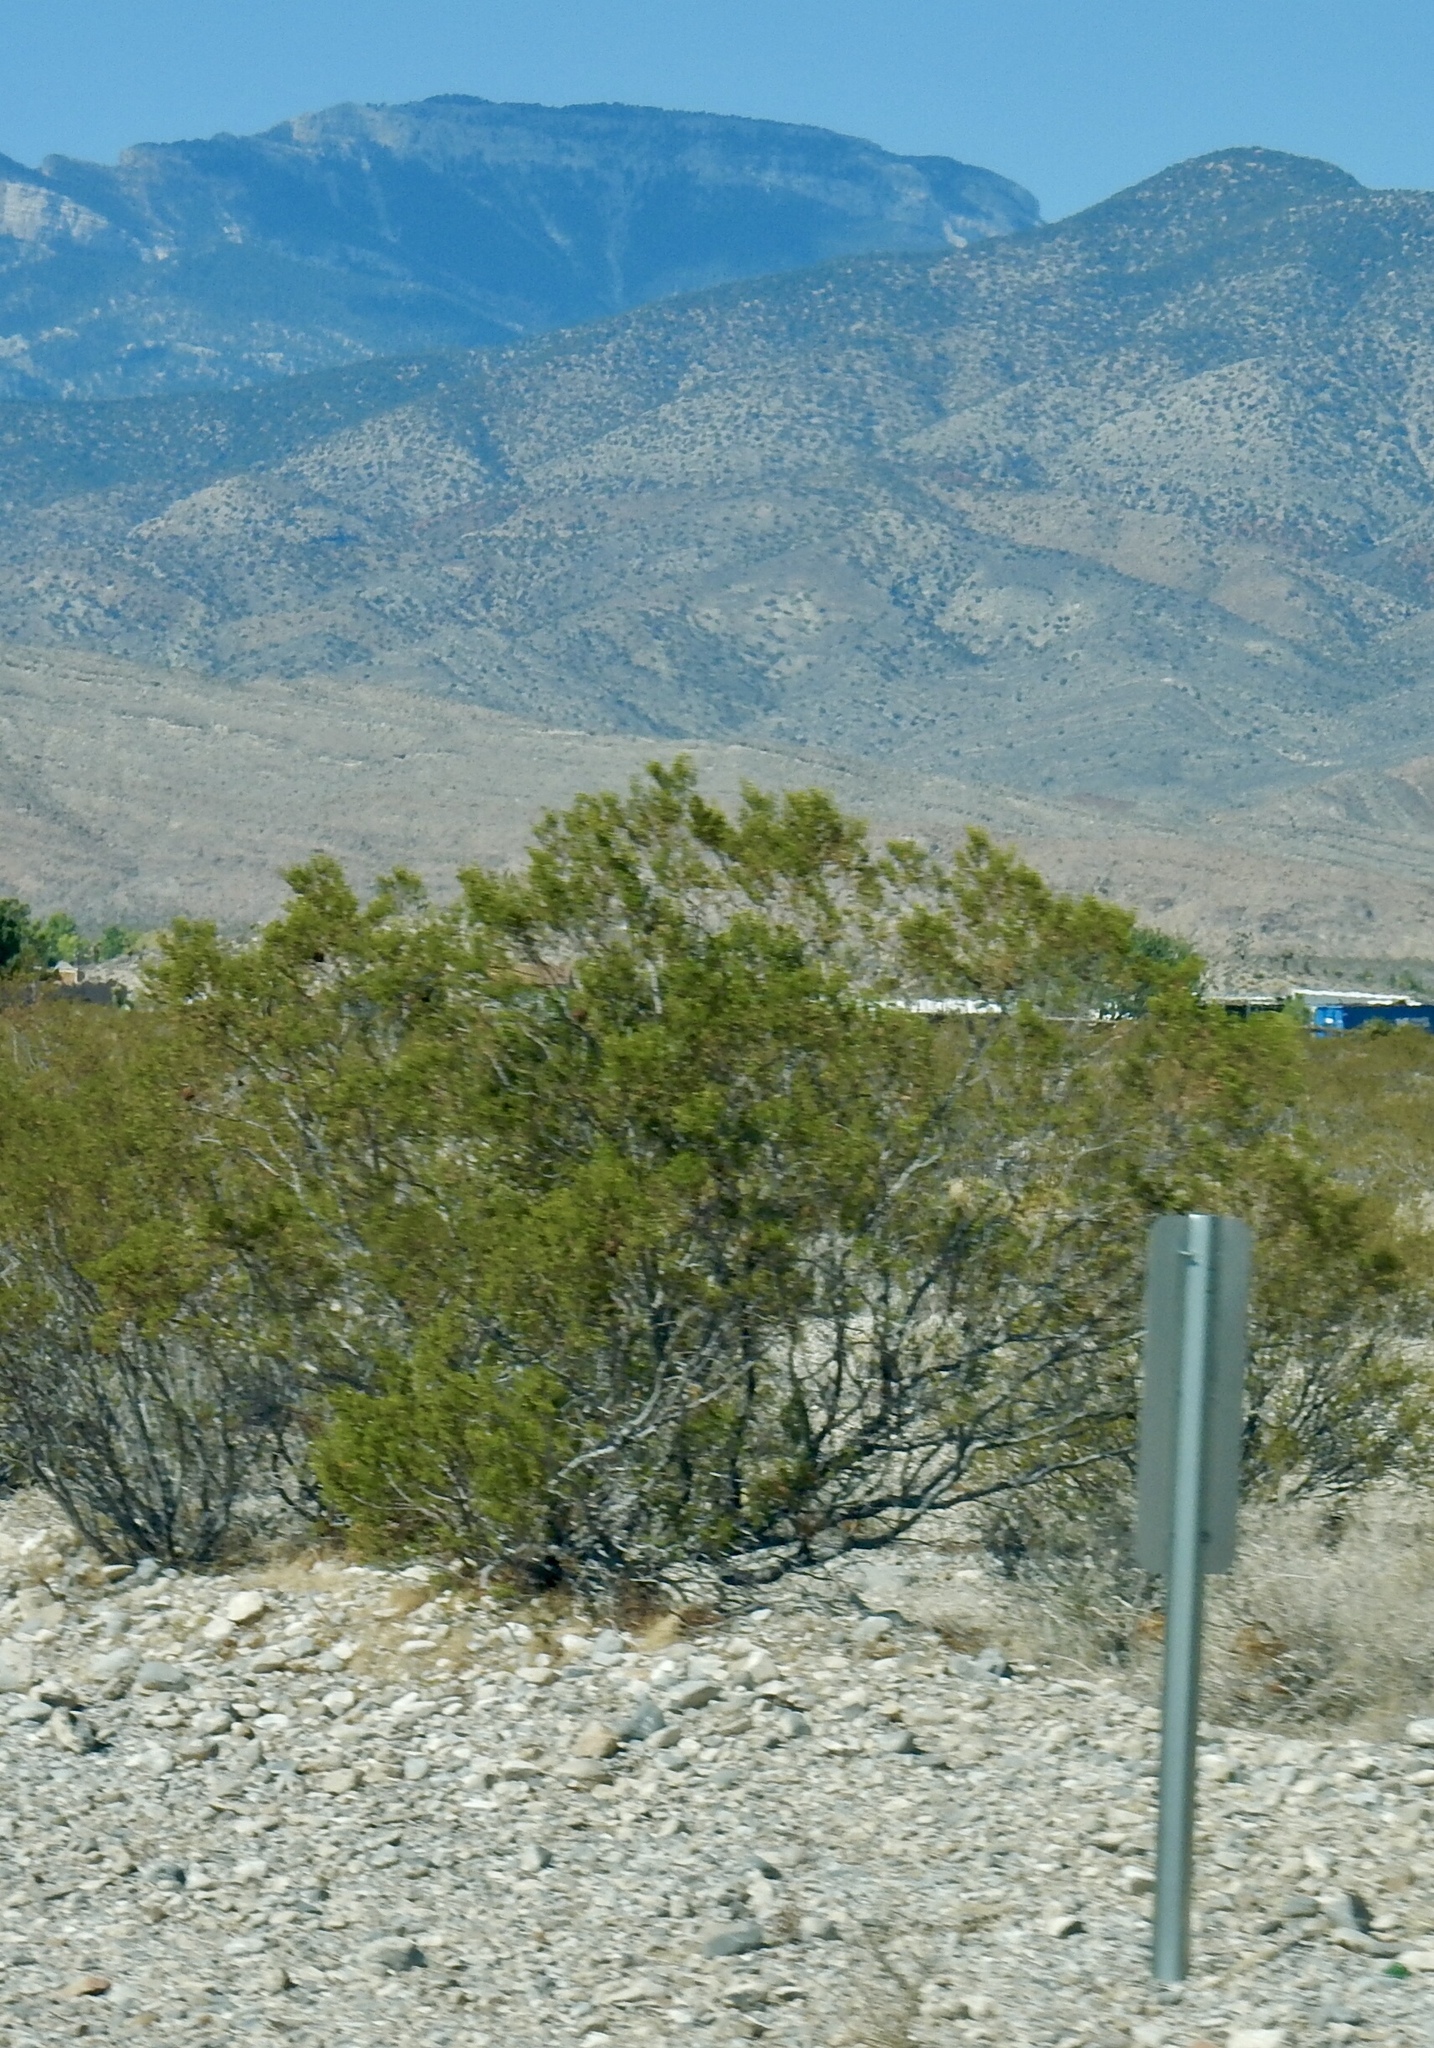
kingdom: Plantae
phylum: Tracheophyta
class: Magnoliopsida
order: Zygophyllales
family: Zygophyllaceae
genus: Larrea
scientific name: Larrea tridentata
